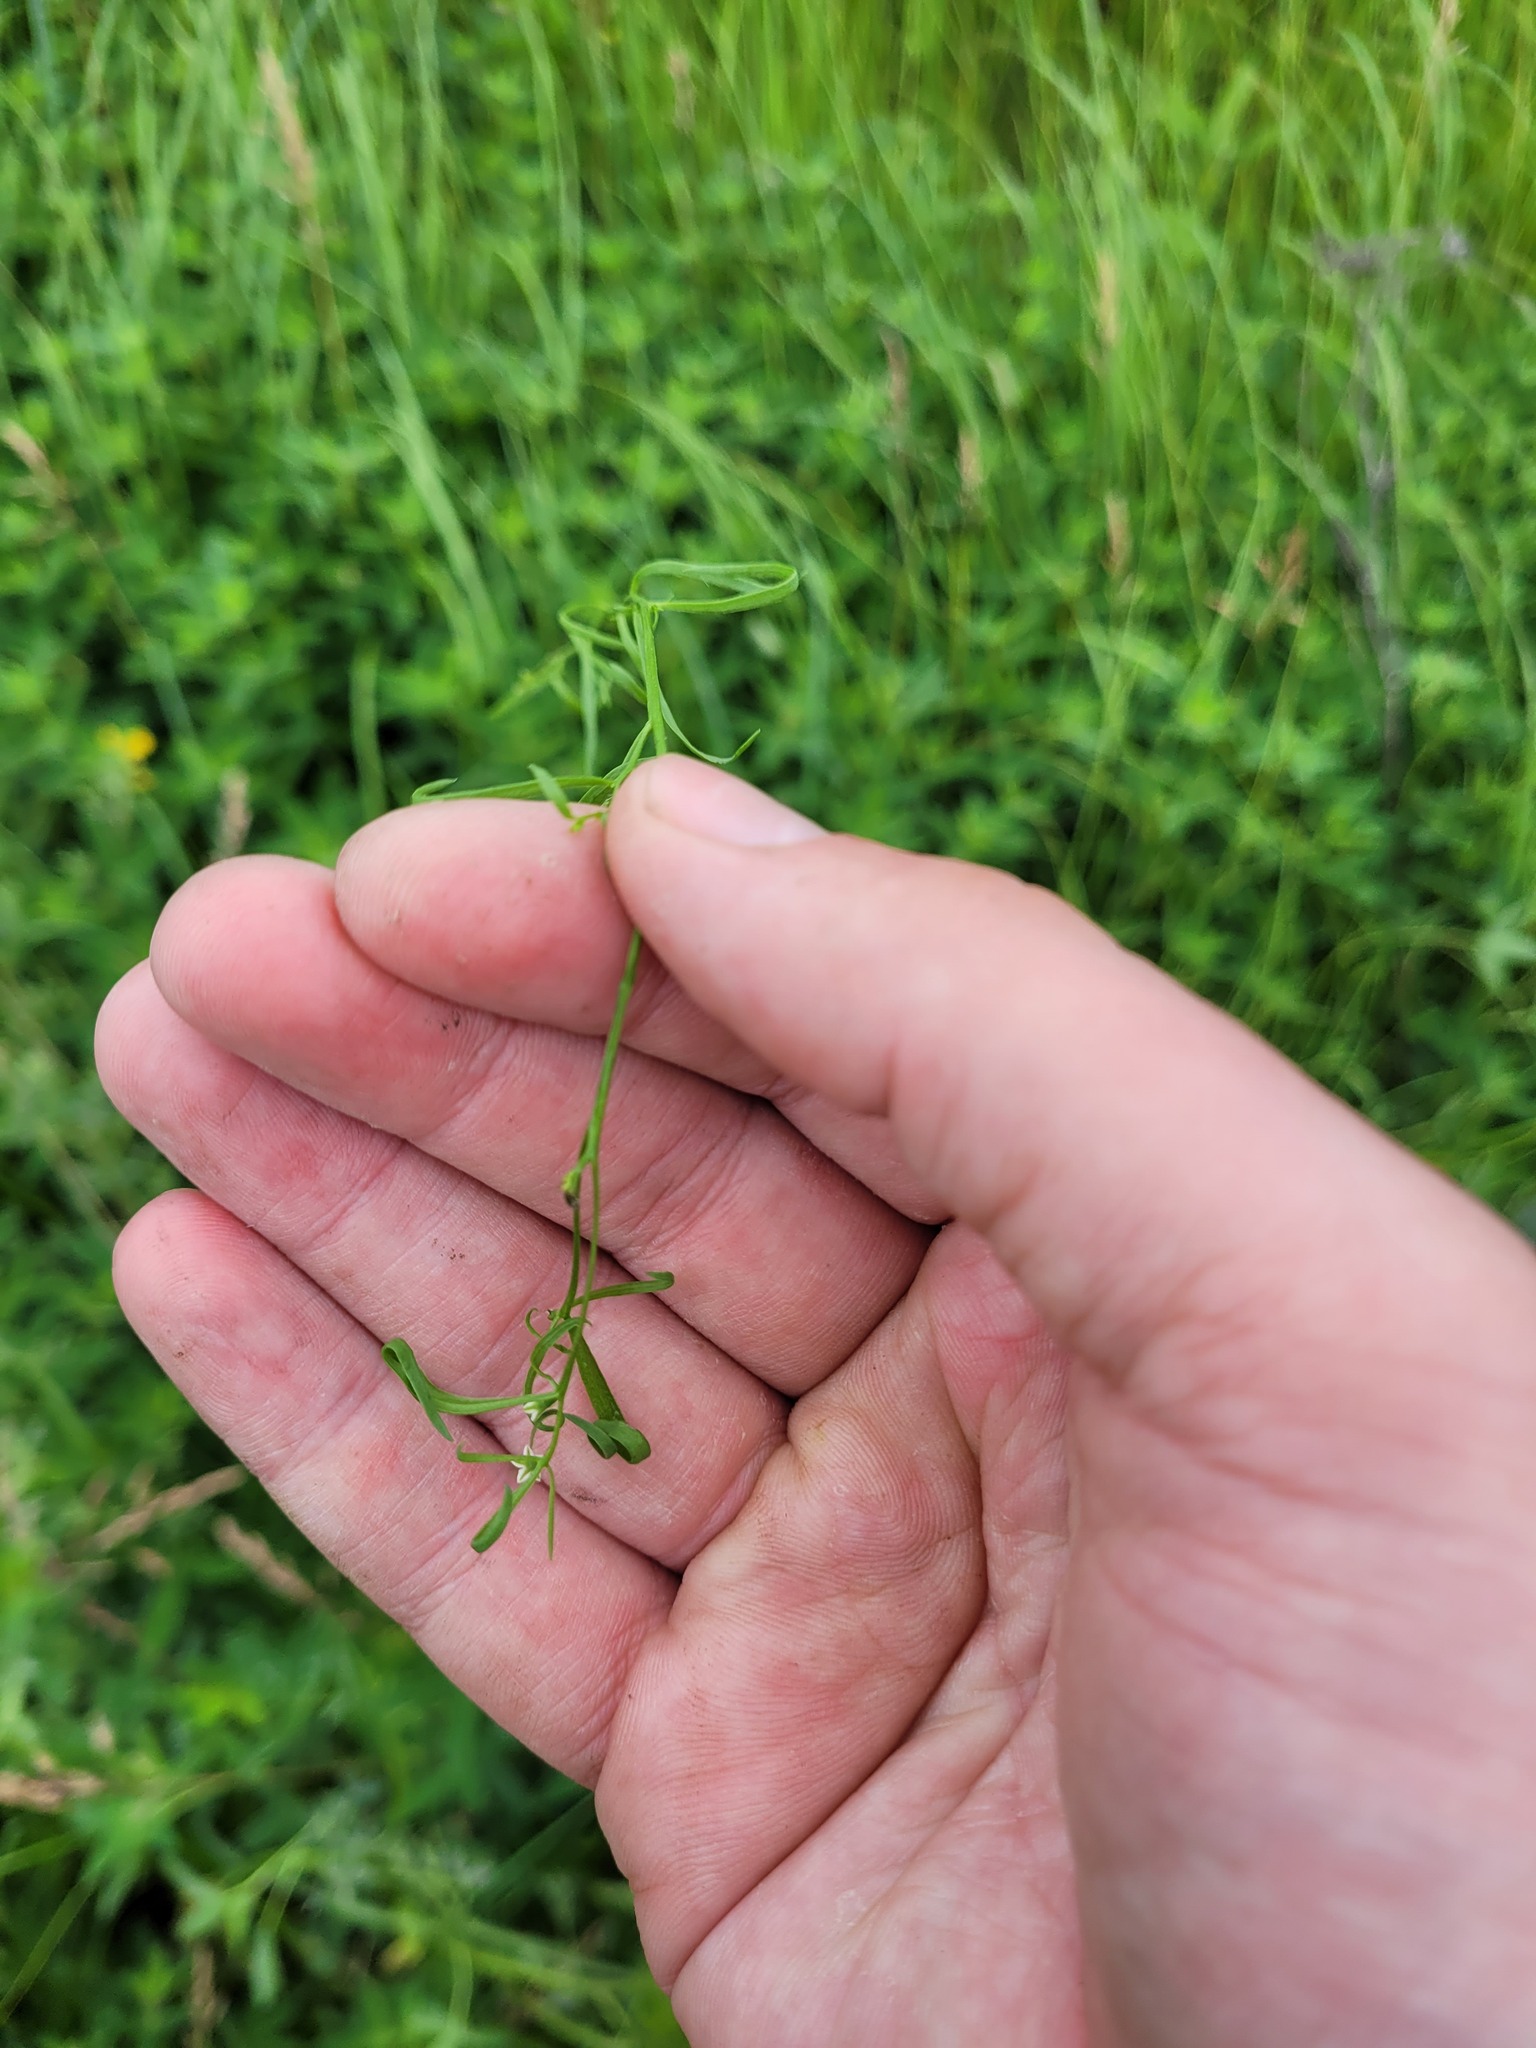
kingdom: Plantae
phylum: Tracheophyta
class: Magnoliopsida
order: Santalales
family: Thesiaceae
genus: Thesium
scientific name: Thesium ramosum
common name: Field thesium
